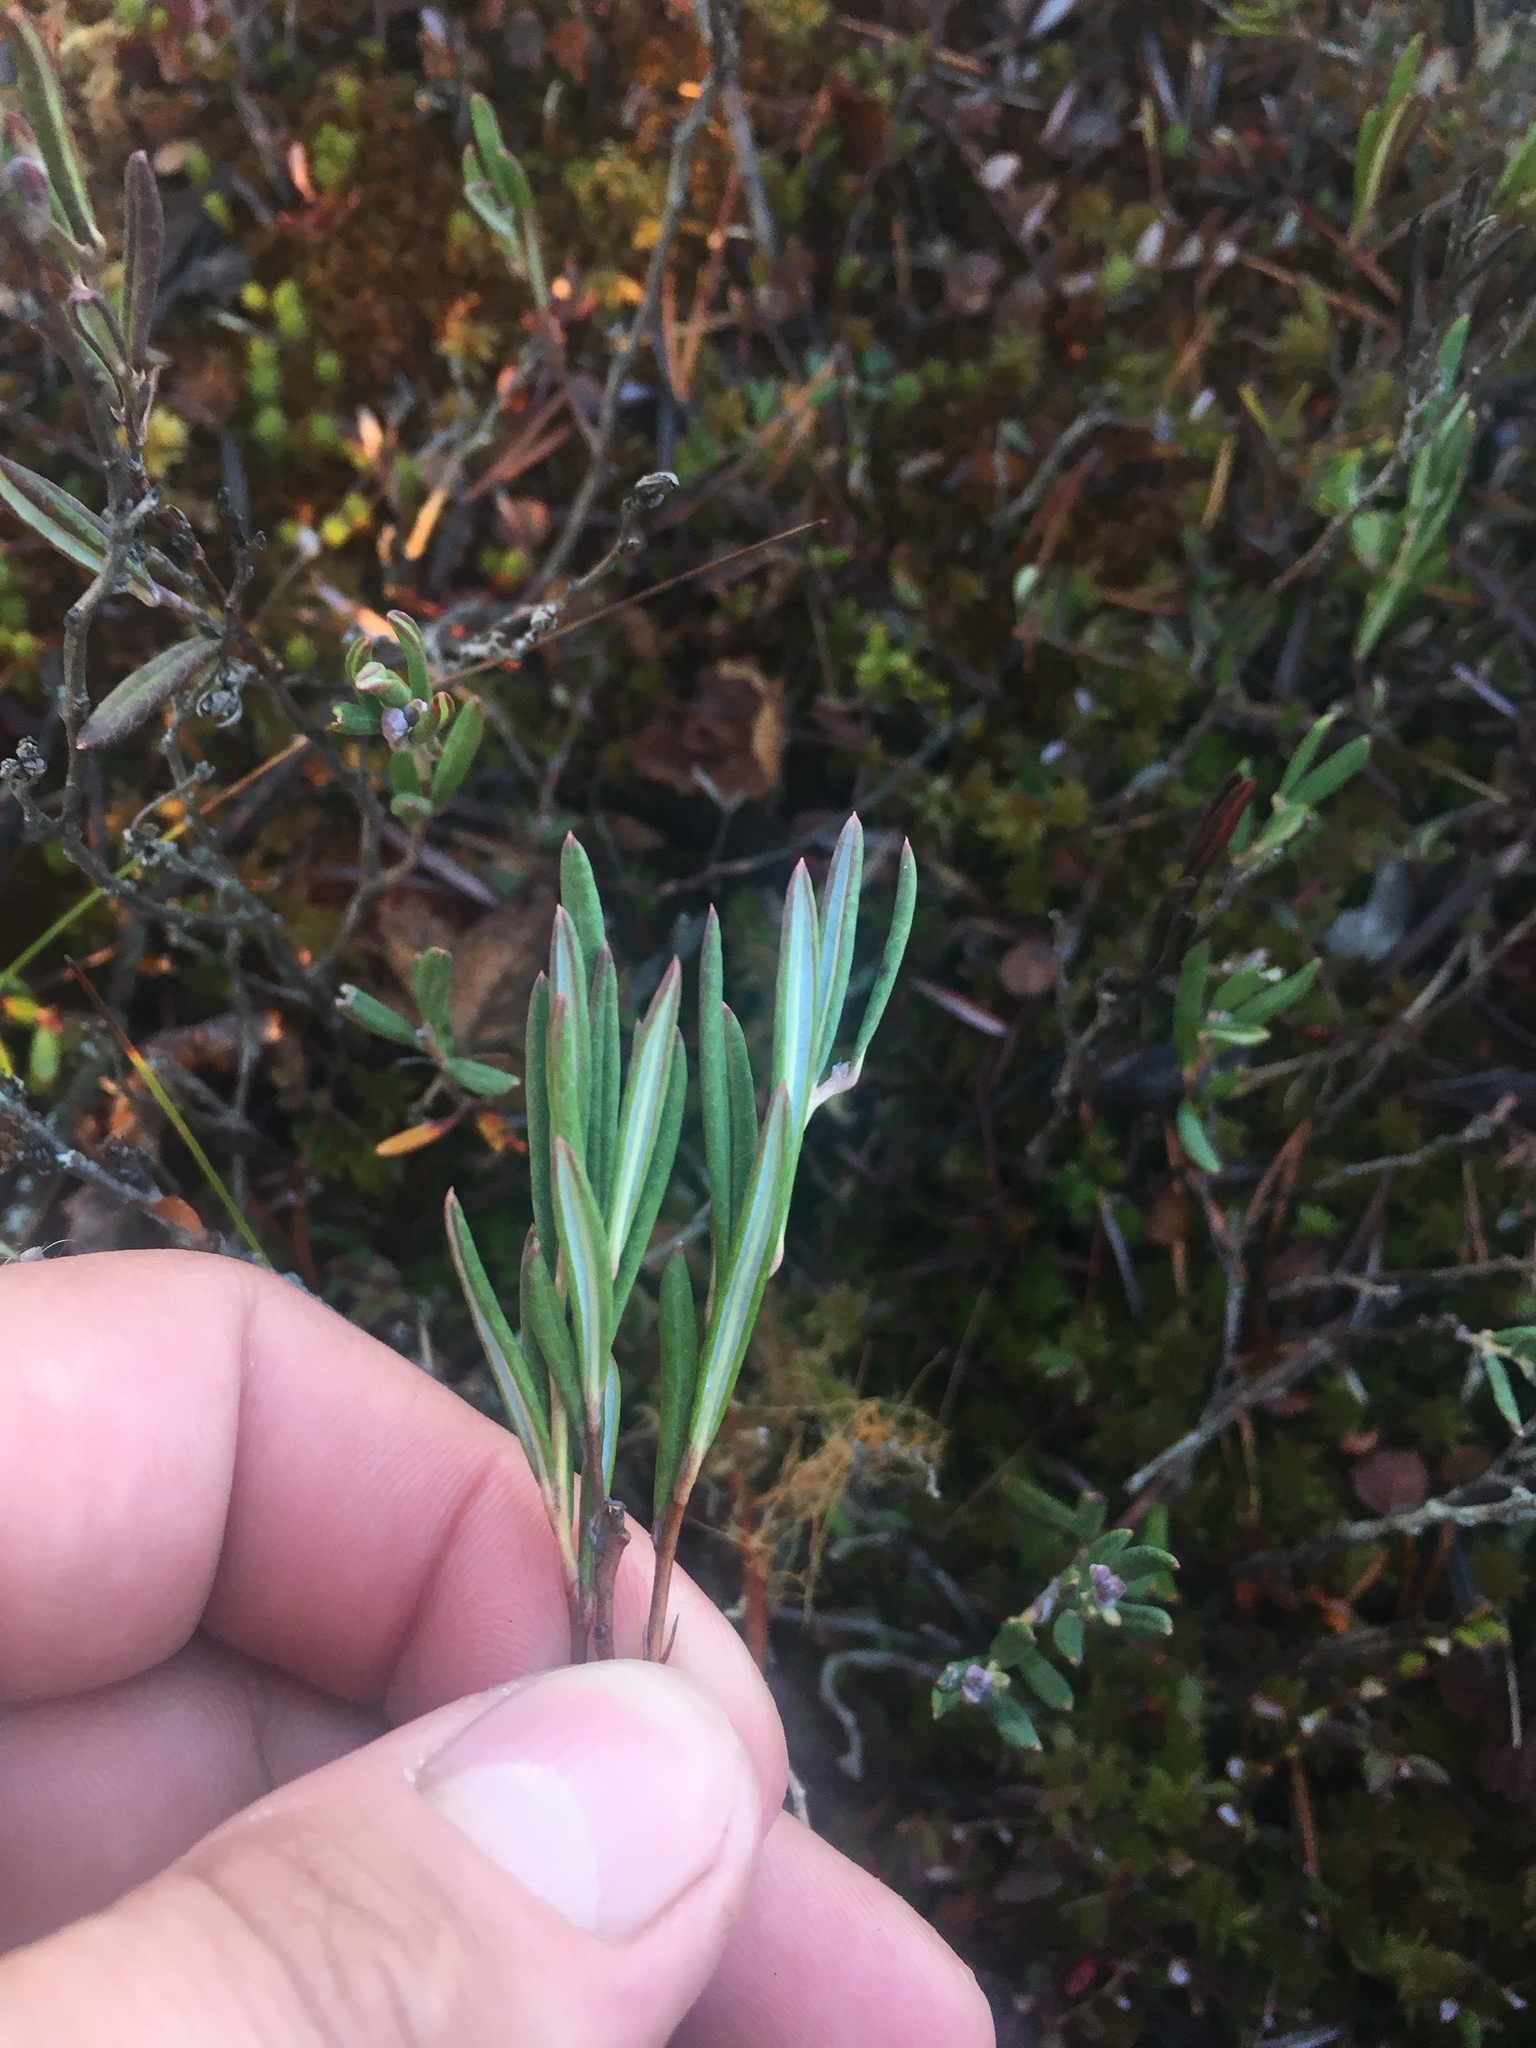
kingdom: Plantae
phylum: Tracheophyta
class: Magnoliopsida
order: Ericales
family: Ericaceae
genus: Andromeda
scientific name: Andromeda polifolia
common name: Bog-rosemary
